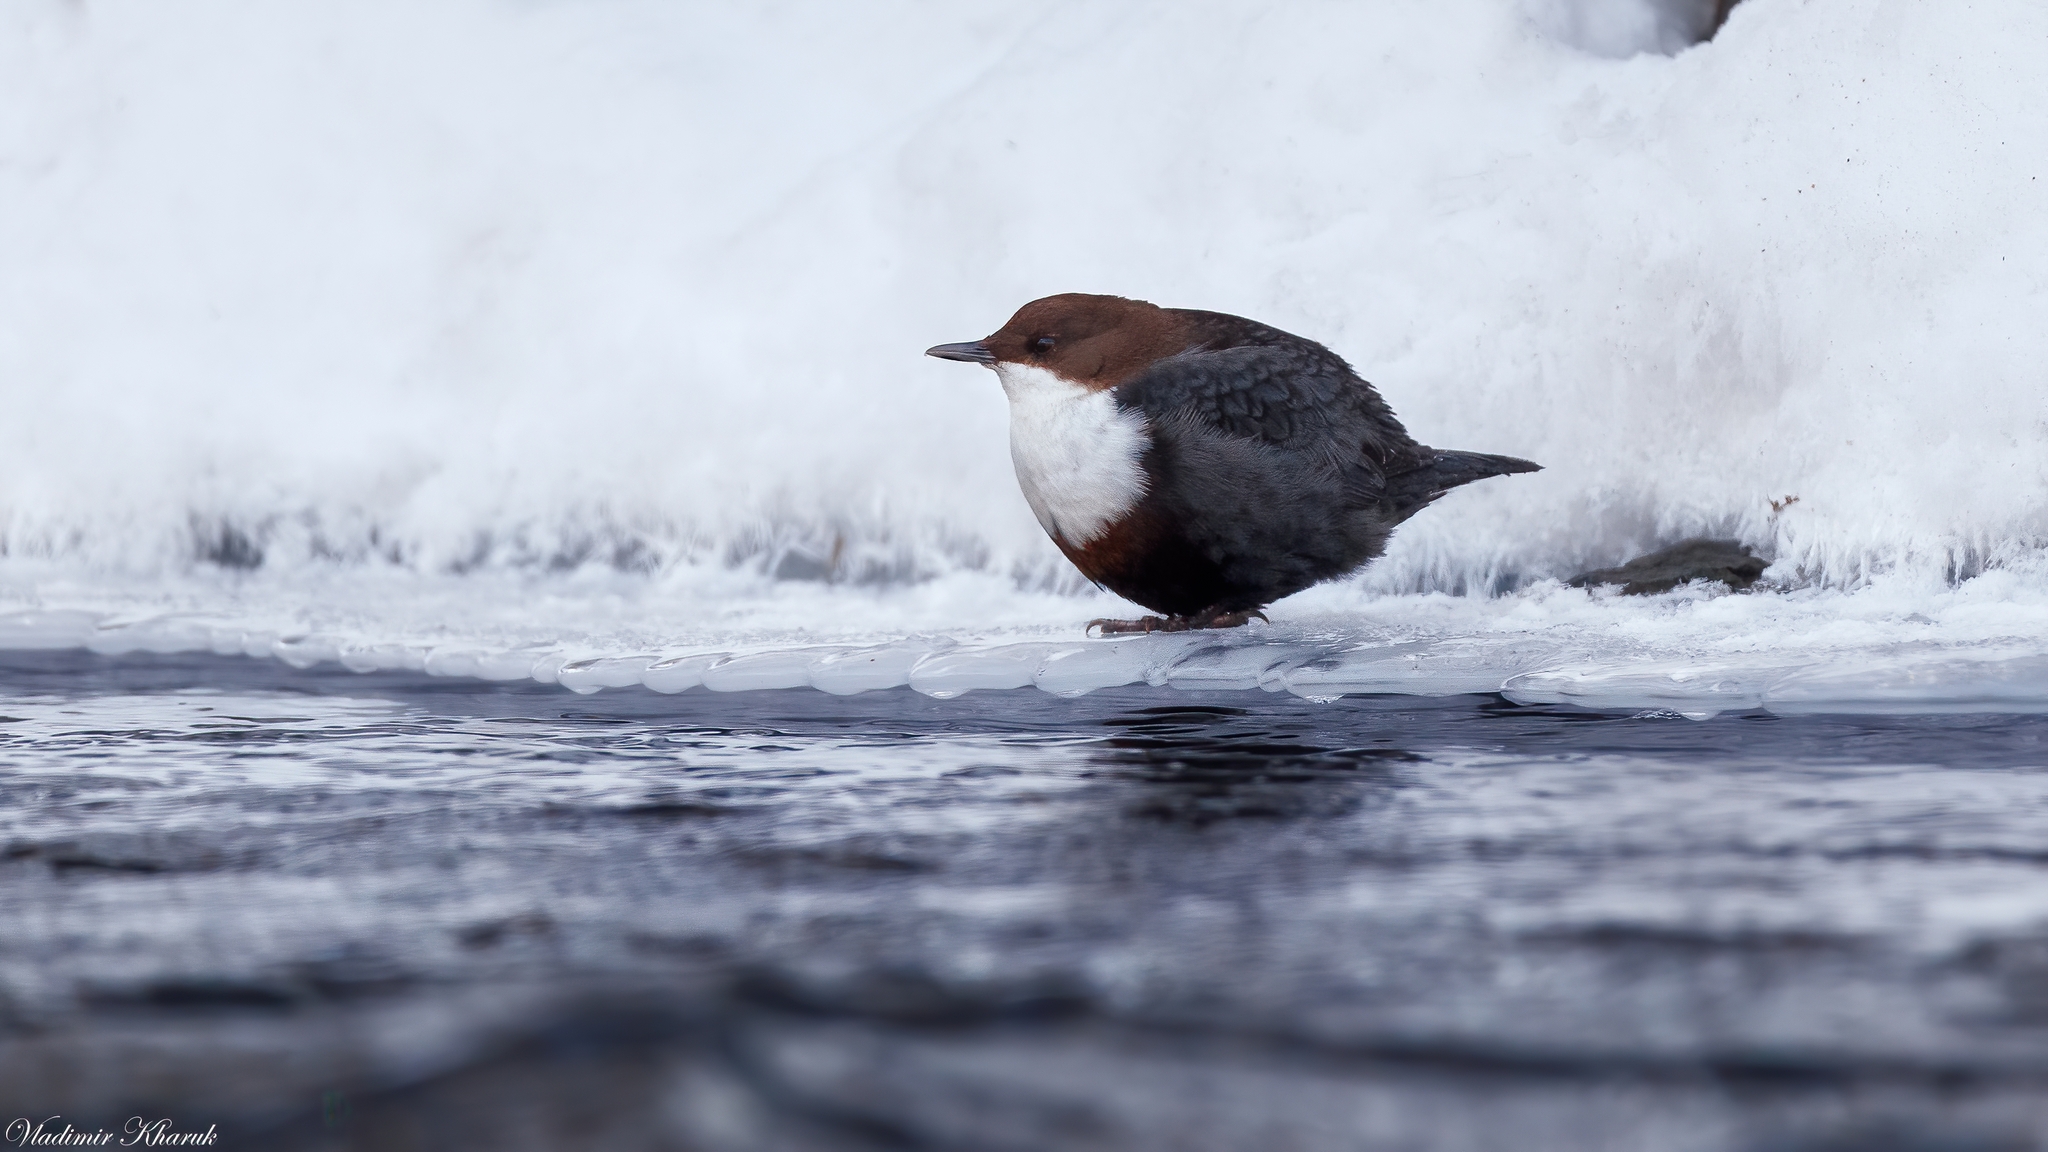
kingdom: Animalia
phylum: Chordata
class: Aves
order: Passeriformes
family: Cinclidae
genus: Cinclus
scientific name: Cinclus cinclus
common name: White-throated dipper
